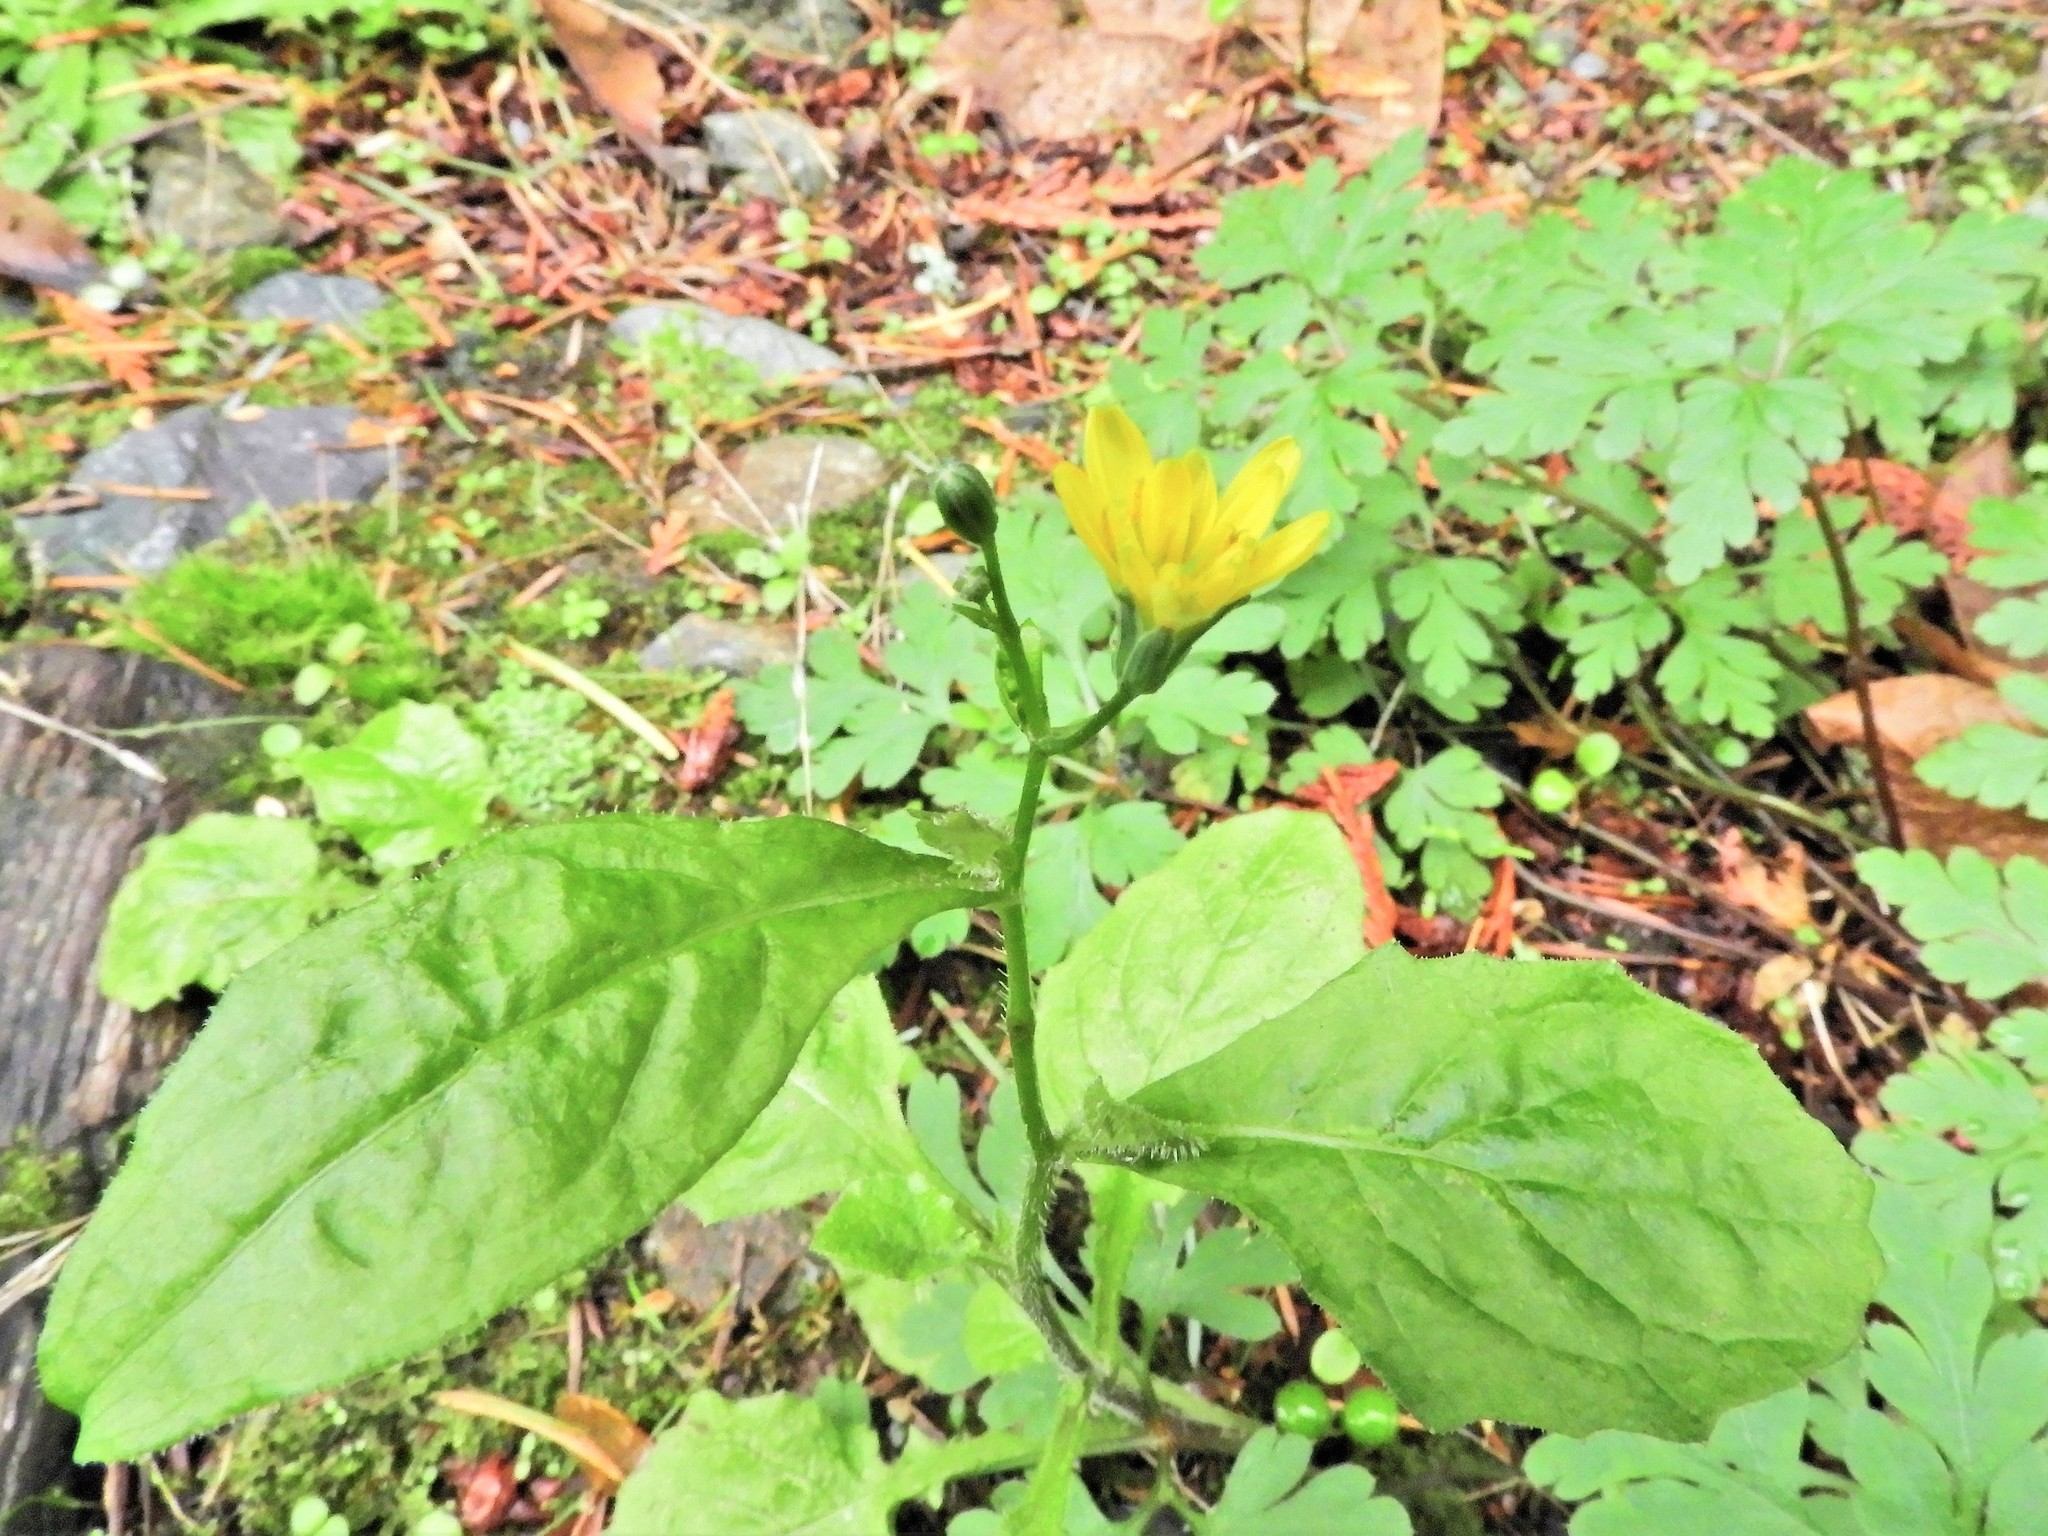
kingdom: Plantae
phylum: Tracheophyta
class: Magnoliopsida
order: Asterales
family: Asteraceae
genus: Lapsana
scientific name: Lapsana communis
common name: Nipplewort
